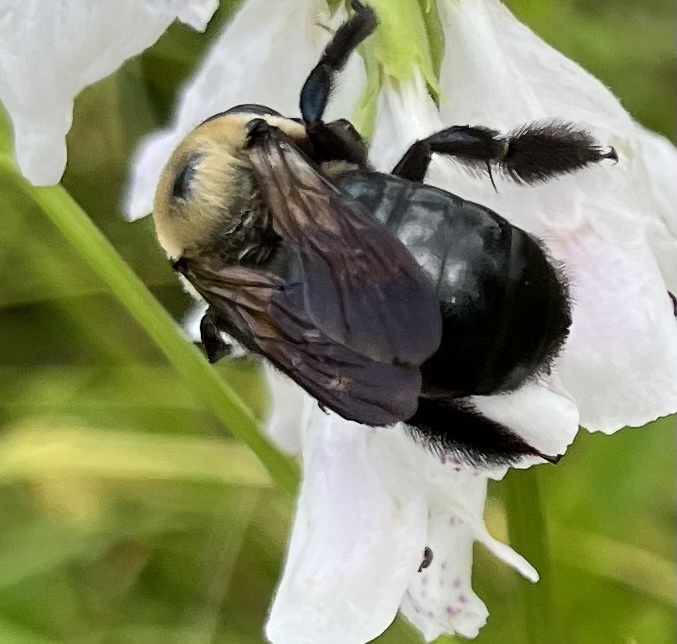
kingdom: Animalia
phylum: Arthropoda
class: Insecta
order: Hymenoptera
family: Apidae
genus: Xylocopa
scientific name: Xylocopa virginica
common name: Carpenter bee
